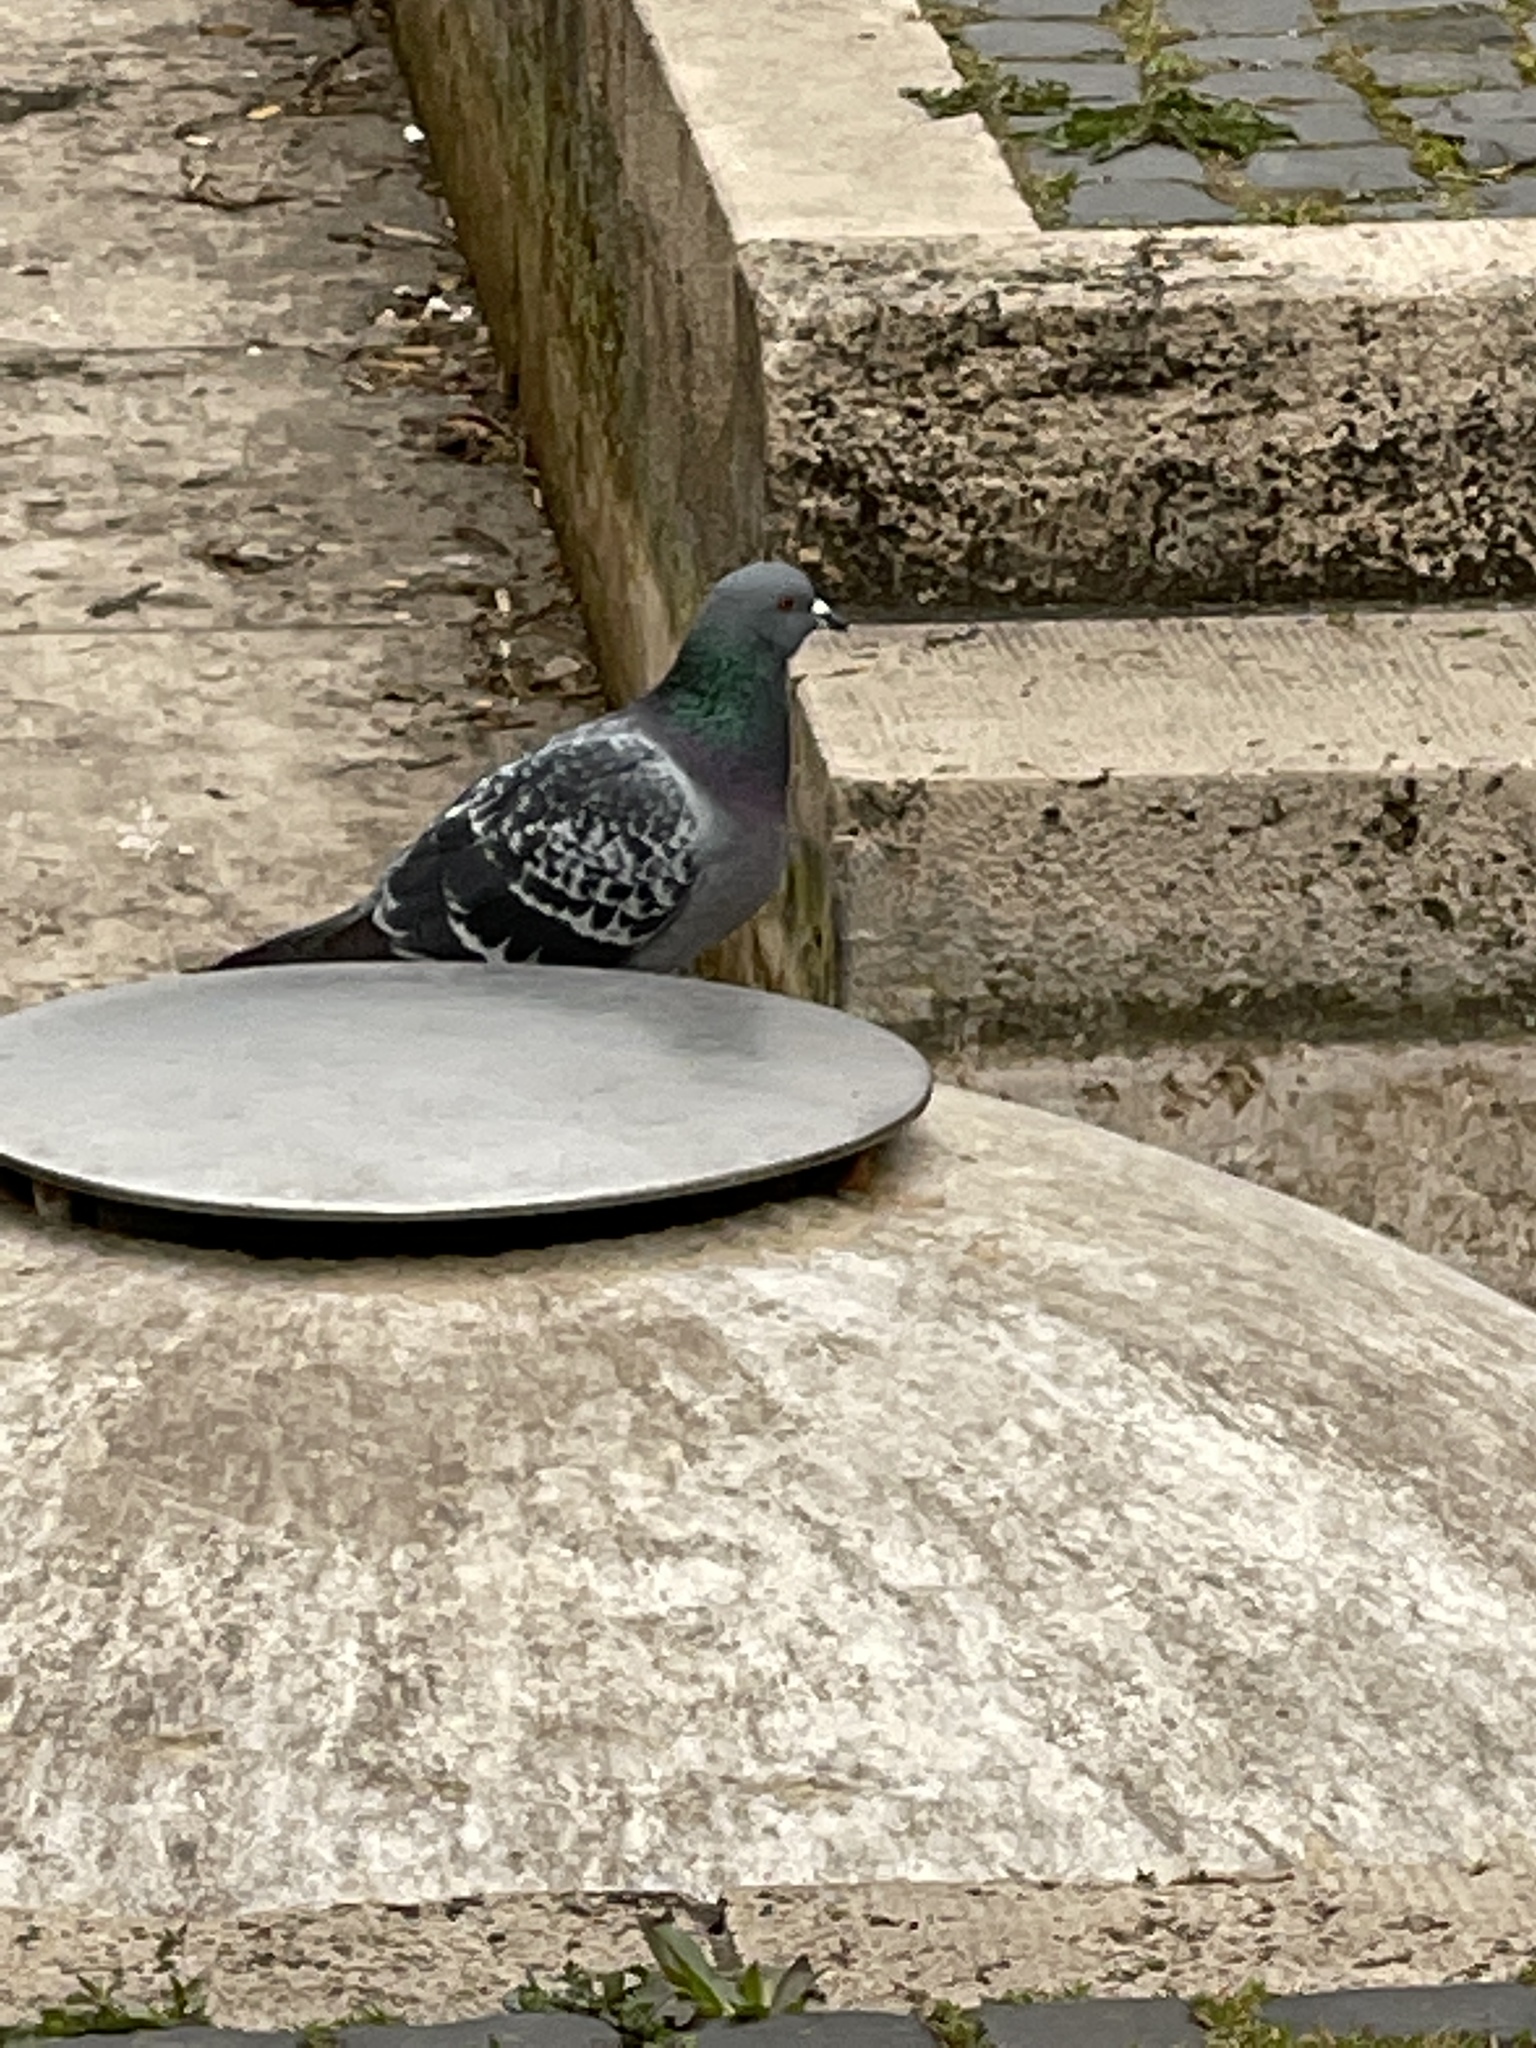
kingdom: Animalia
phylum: Chordata
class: Aves
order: Columbiformes
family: Columbidae
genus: Columba
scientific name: Columba livia
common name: Rock pigeon
